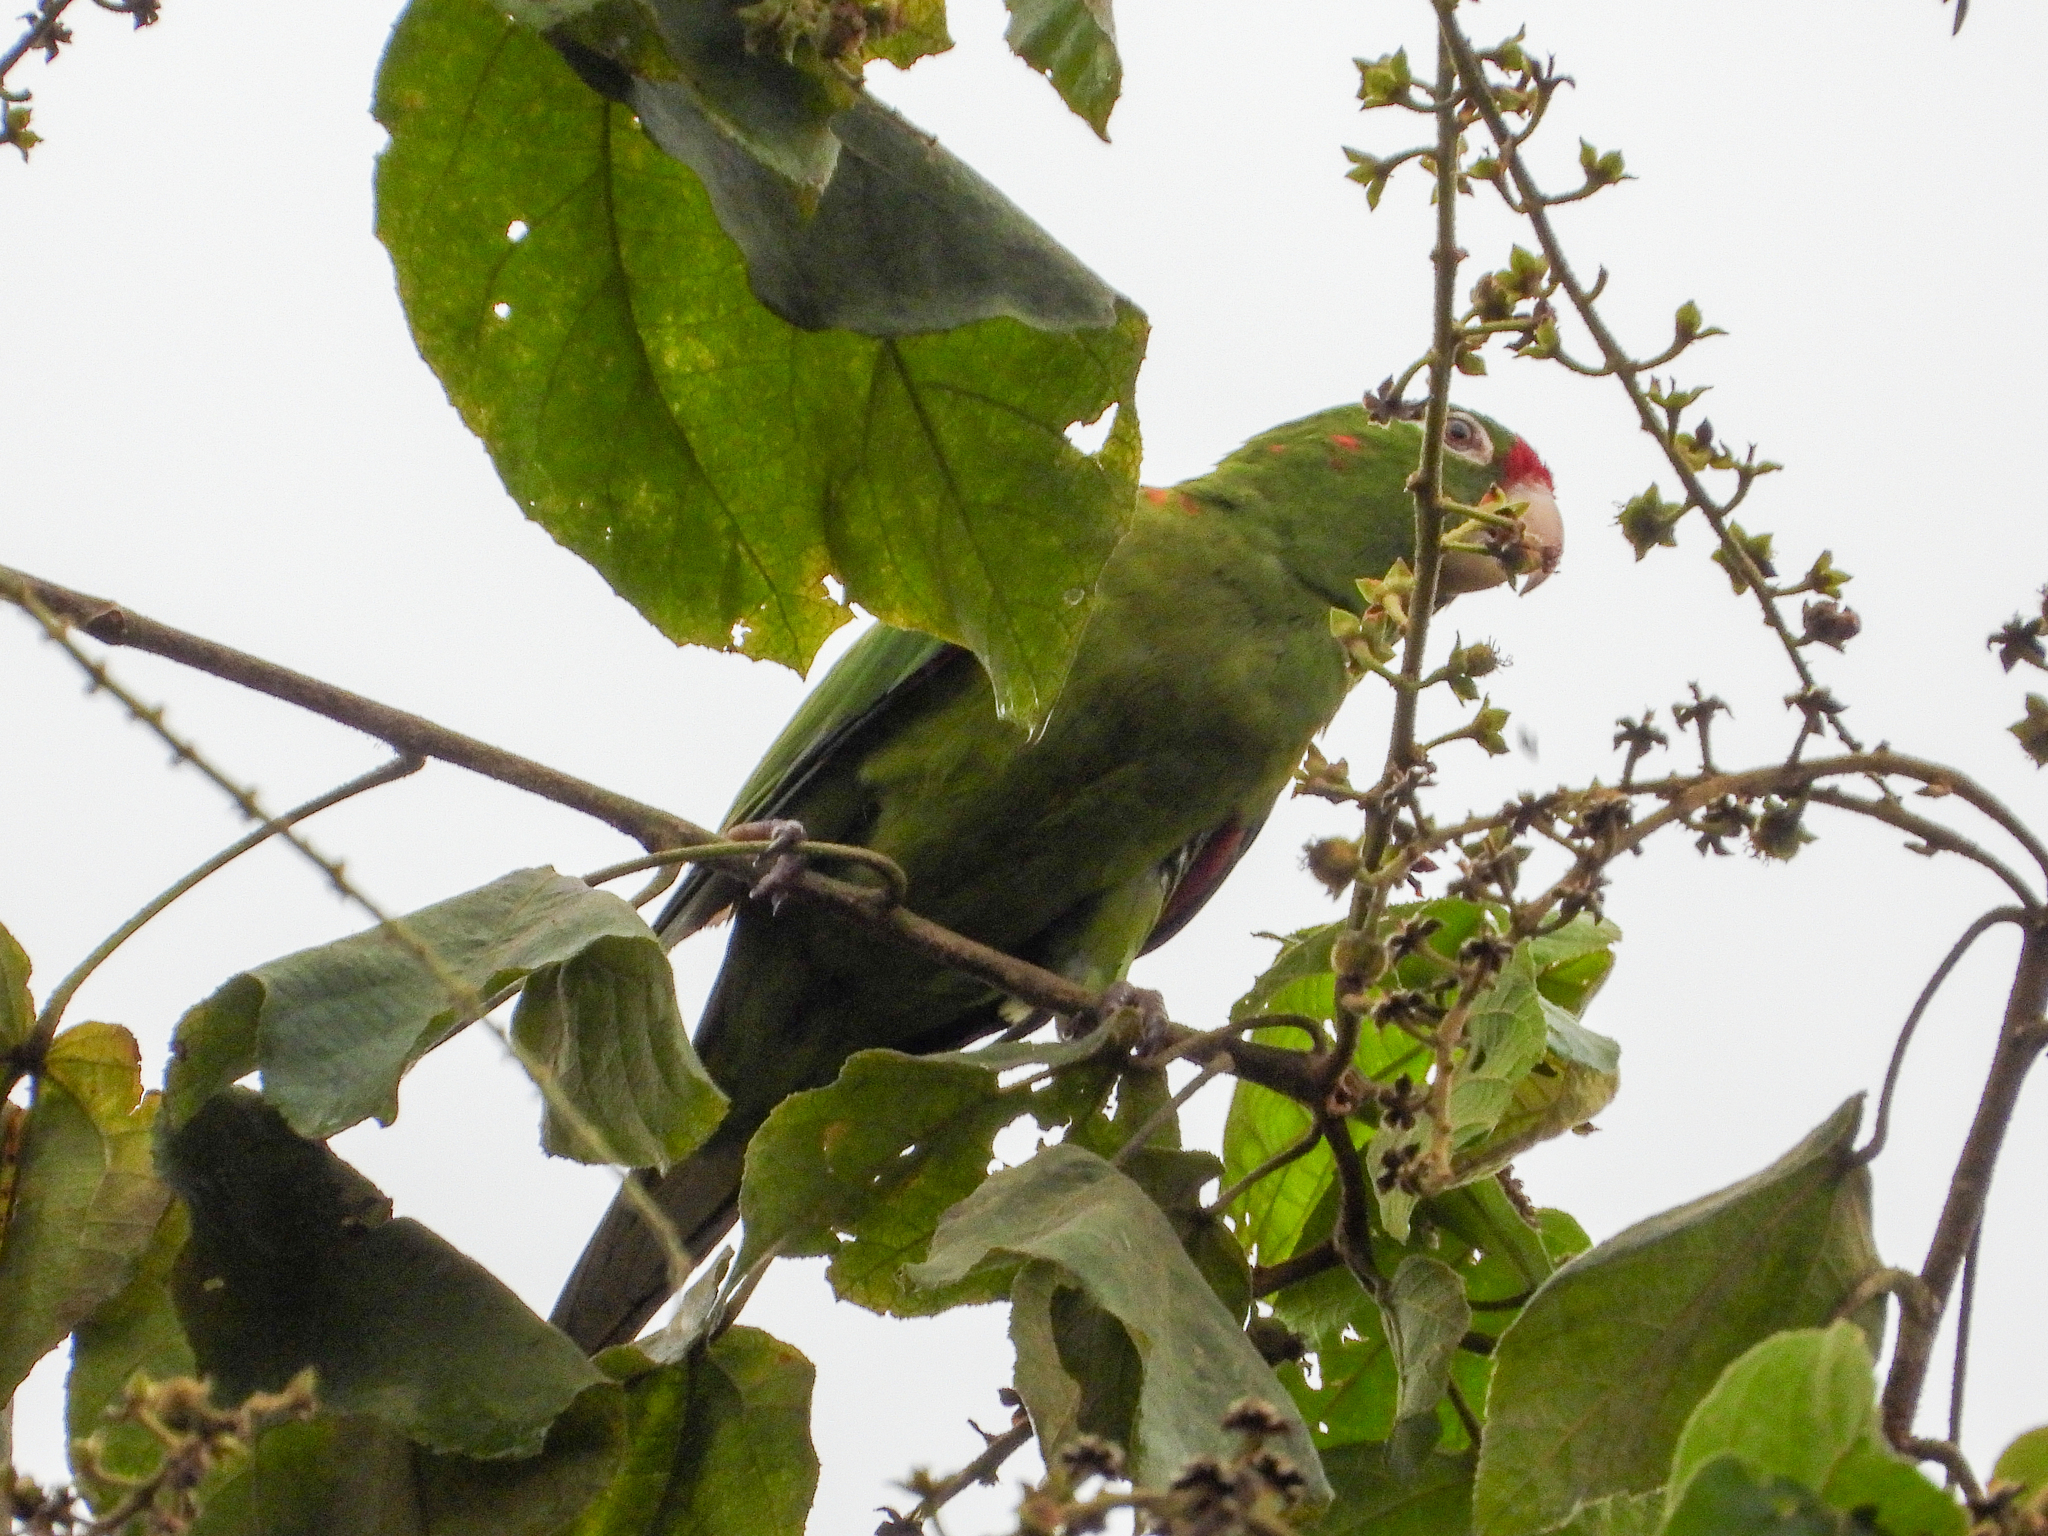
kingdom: Animalia
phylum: Chordata
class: Aves
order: Psittaciformes
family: Psittacidae
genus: Aratinga
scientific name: Aratinga finschi
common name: Crimson-fronted parakeet
